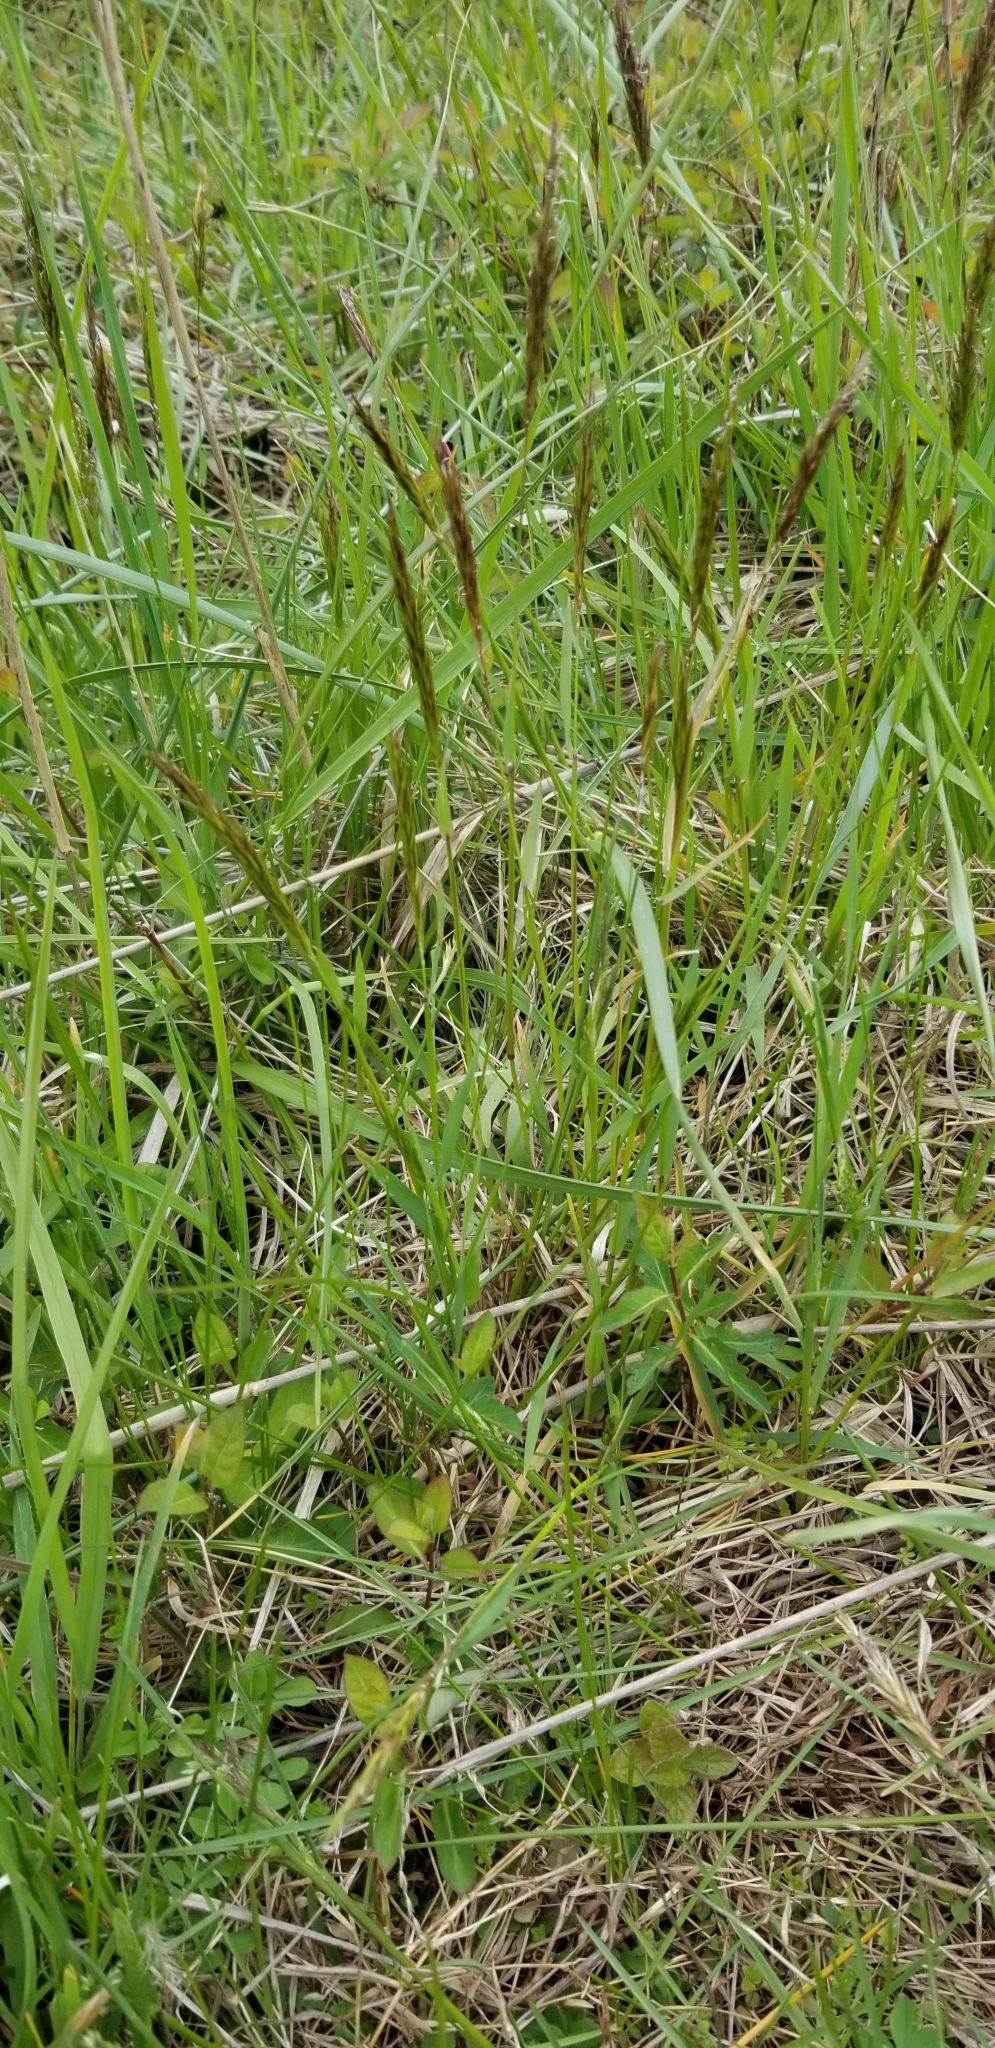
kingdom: Plantae
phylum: Tracheophyta
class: Liliopsida
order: Poales
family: Poaceae
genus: Anthoxanthum
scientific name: Anthoxanthum odoratum
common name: Sweet vernalgrass
